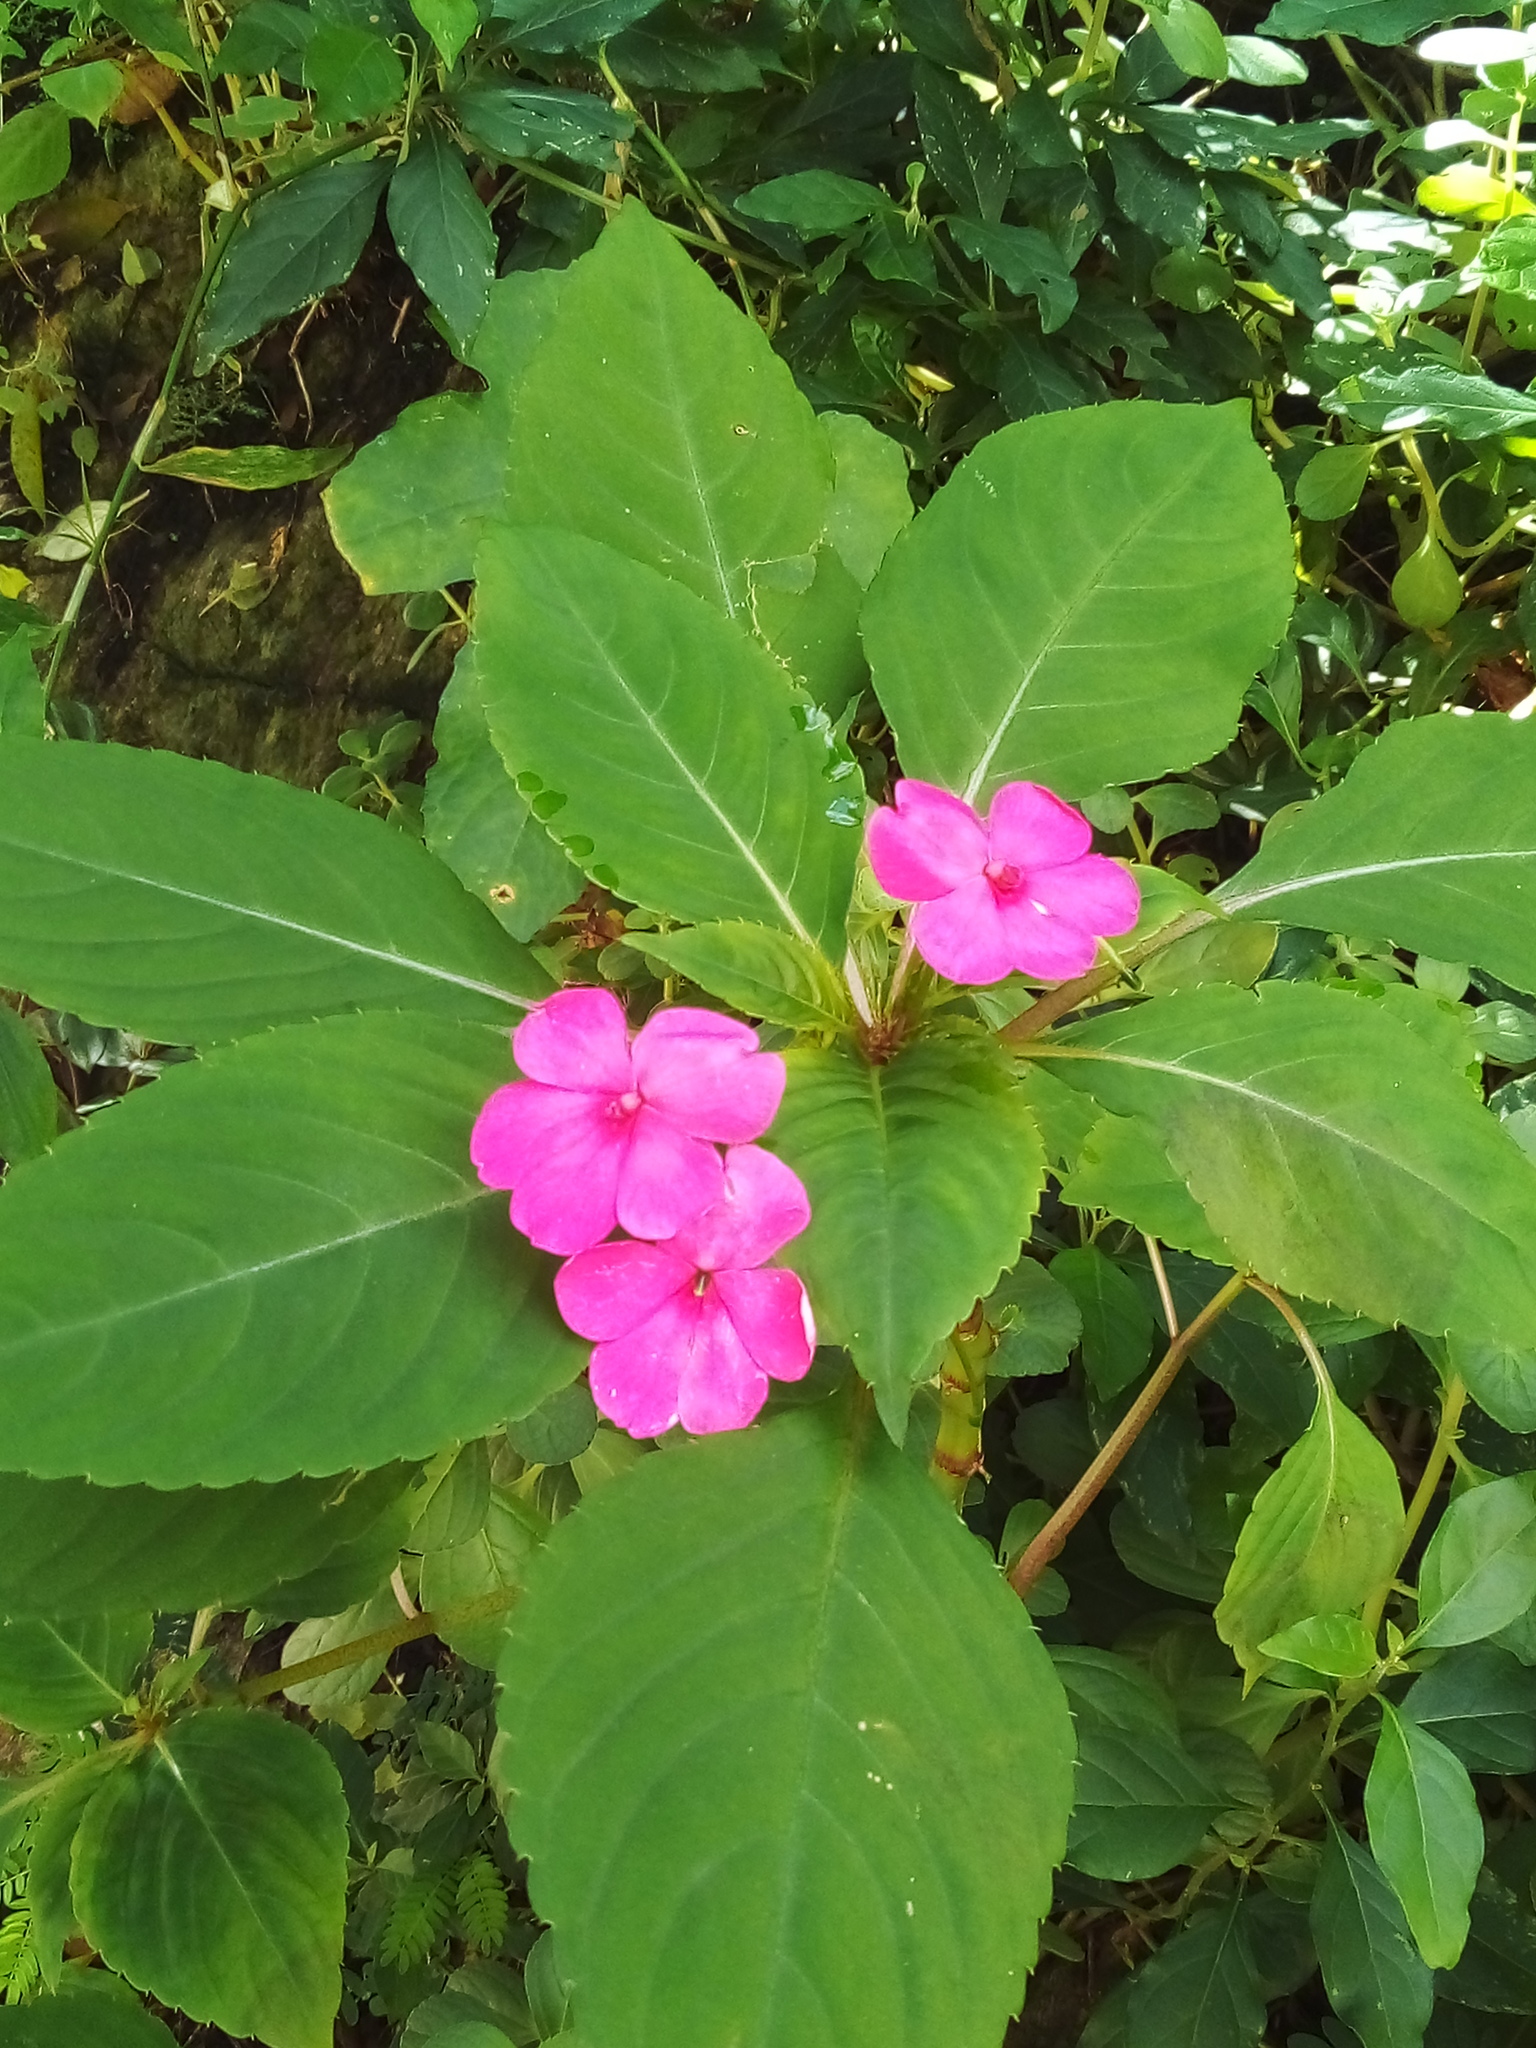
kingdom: Plantae
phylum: Tracheophyta
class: Magnoliopsida
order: Ericales
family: Balsaminaceae
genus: Impatiens
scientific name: Impatiens walleriana
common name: Buzzy lizzy
